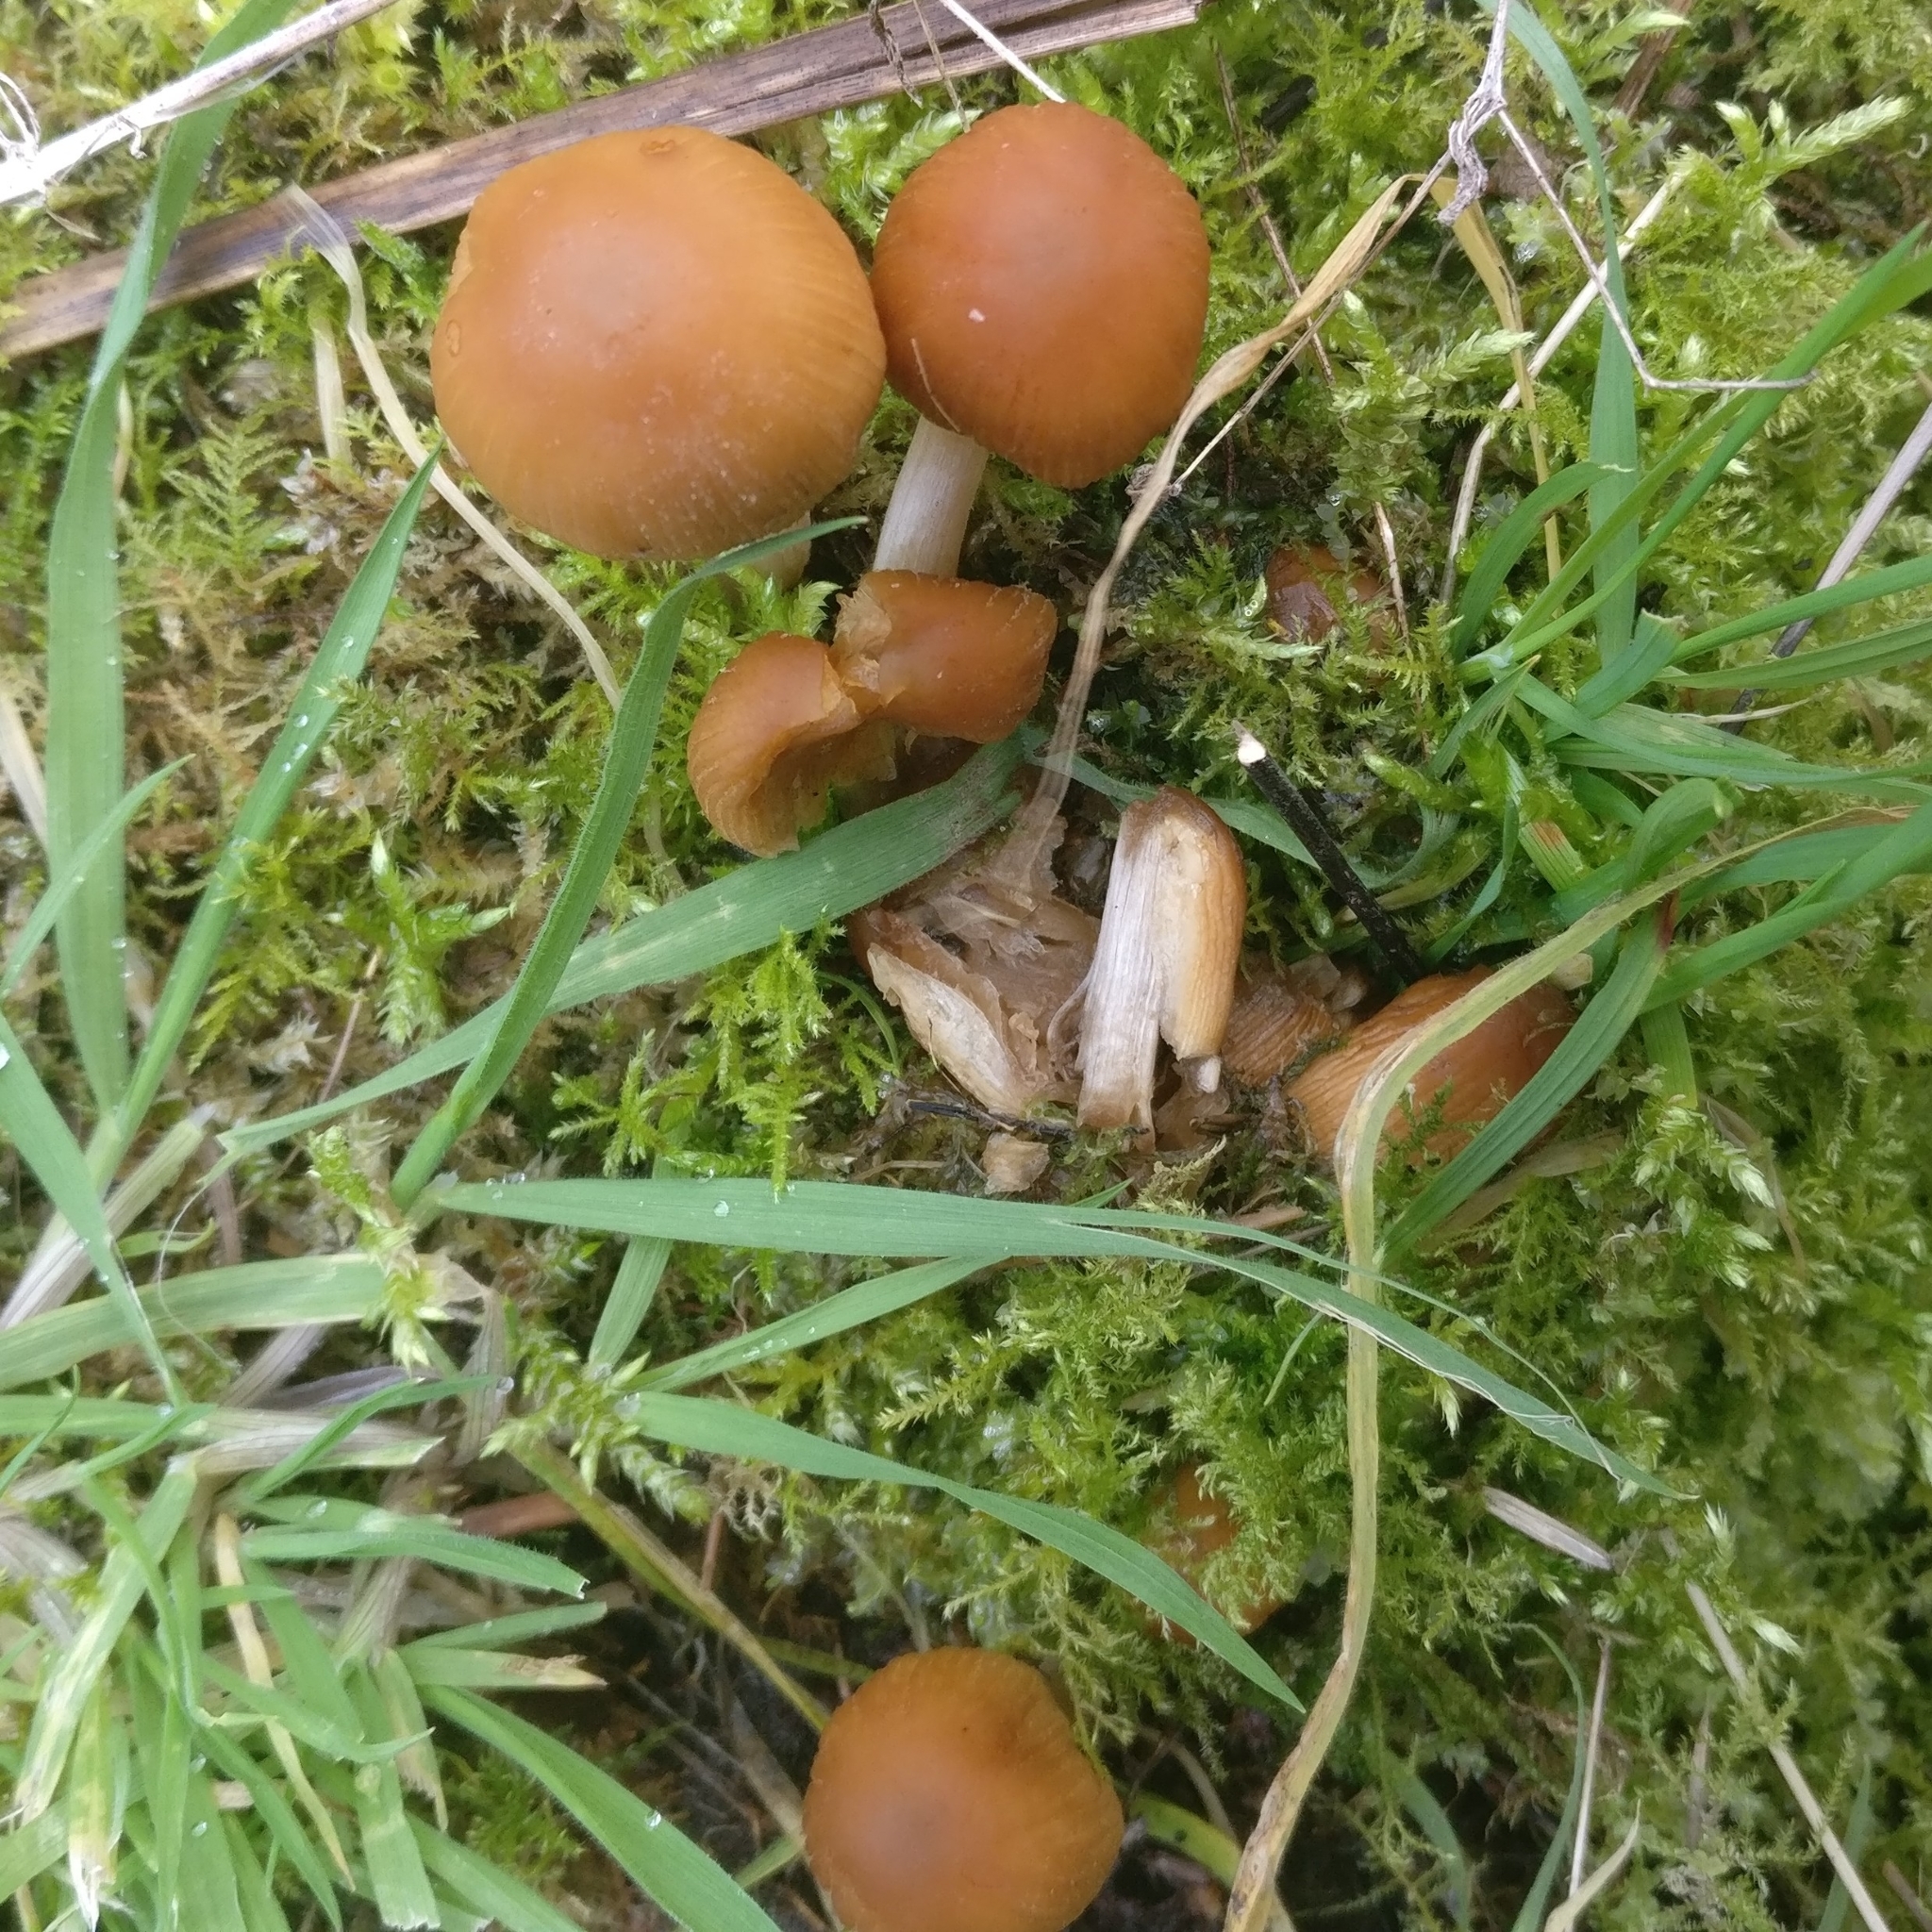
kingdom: Fungi
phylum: Basidiomycota
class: Agaricomycetes
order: Agaricales
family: Psathyrellaceae
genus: Coprinellus
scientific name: Coprinellus
